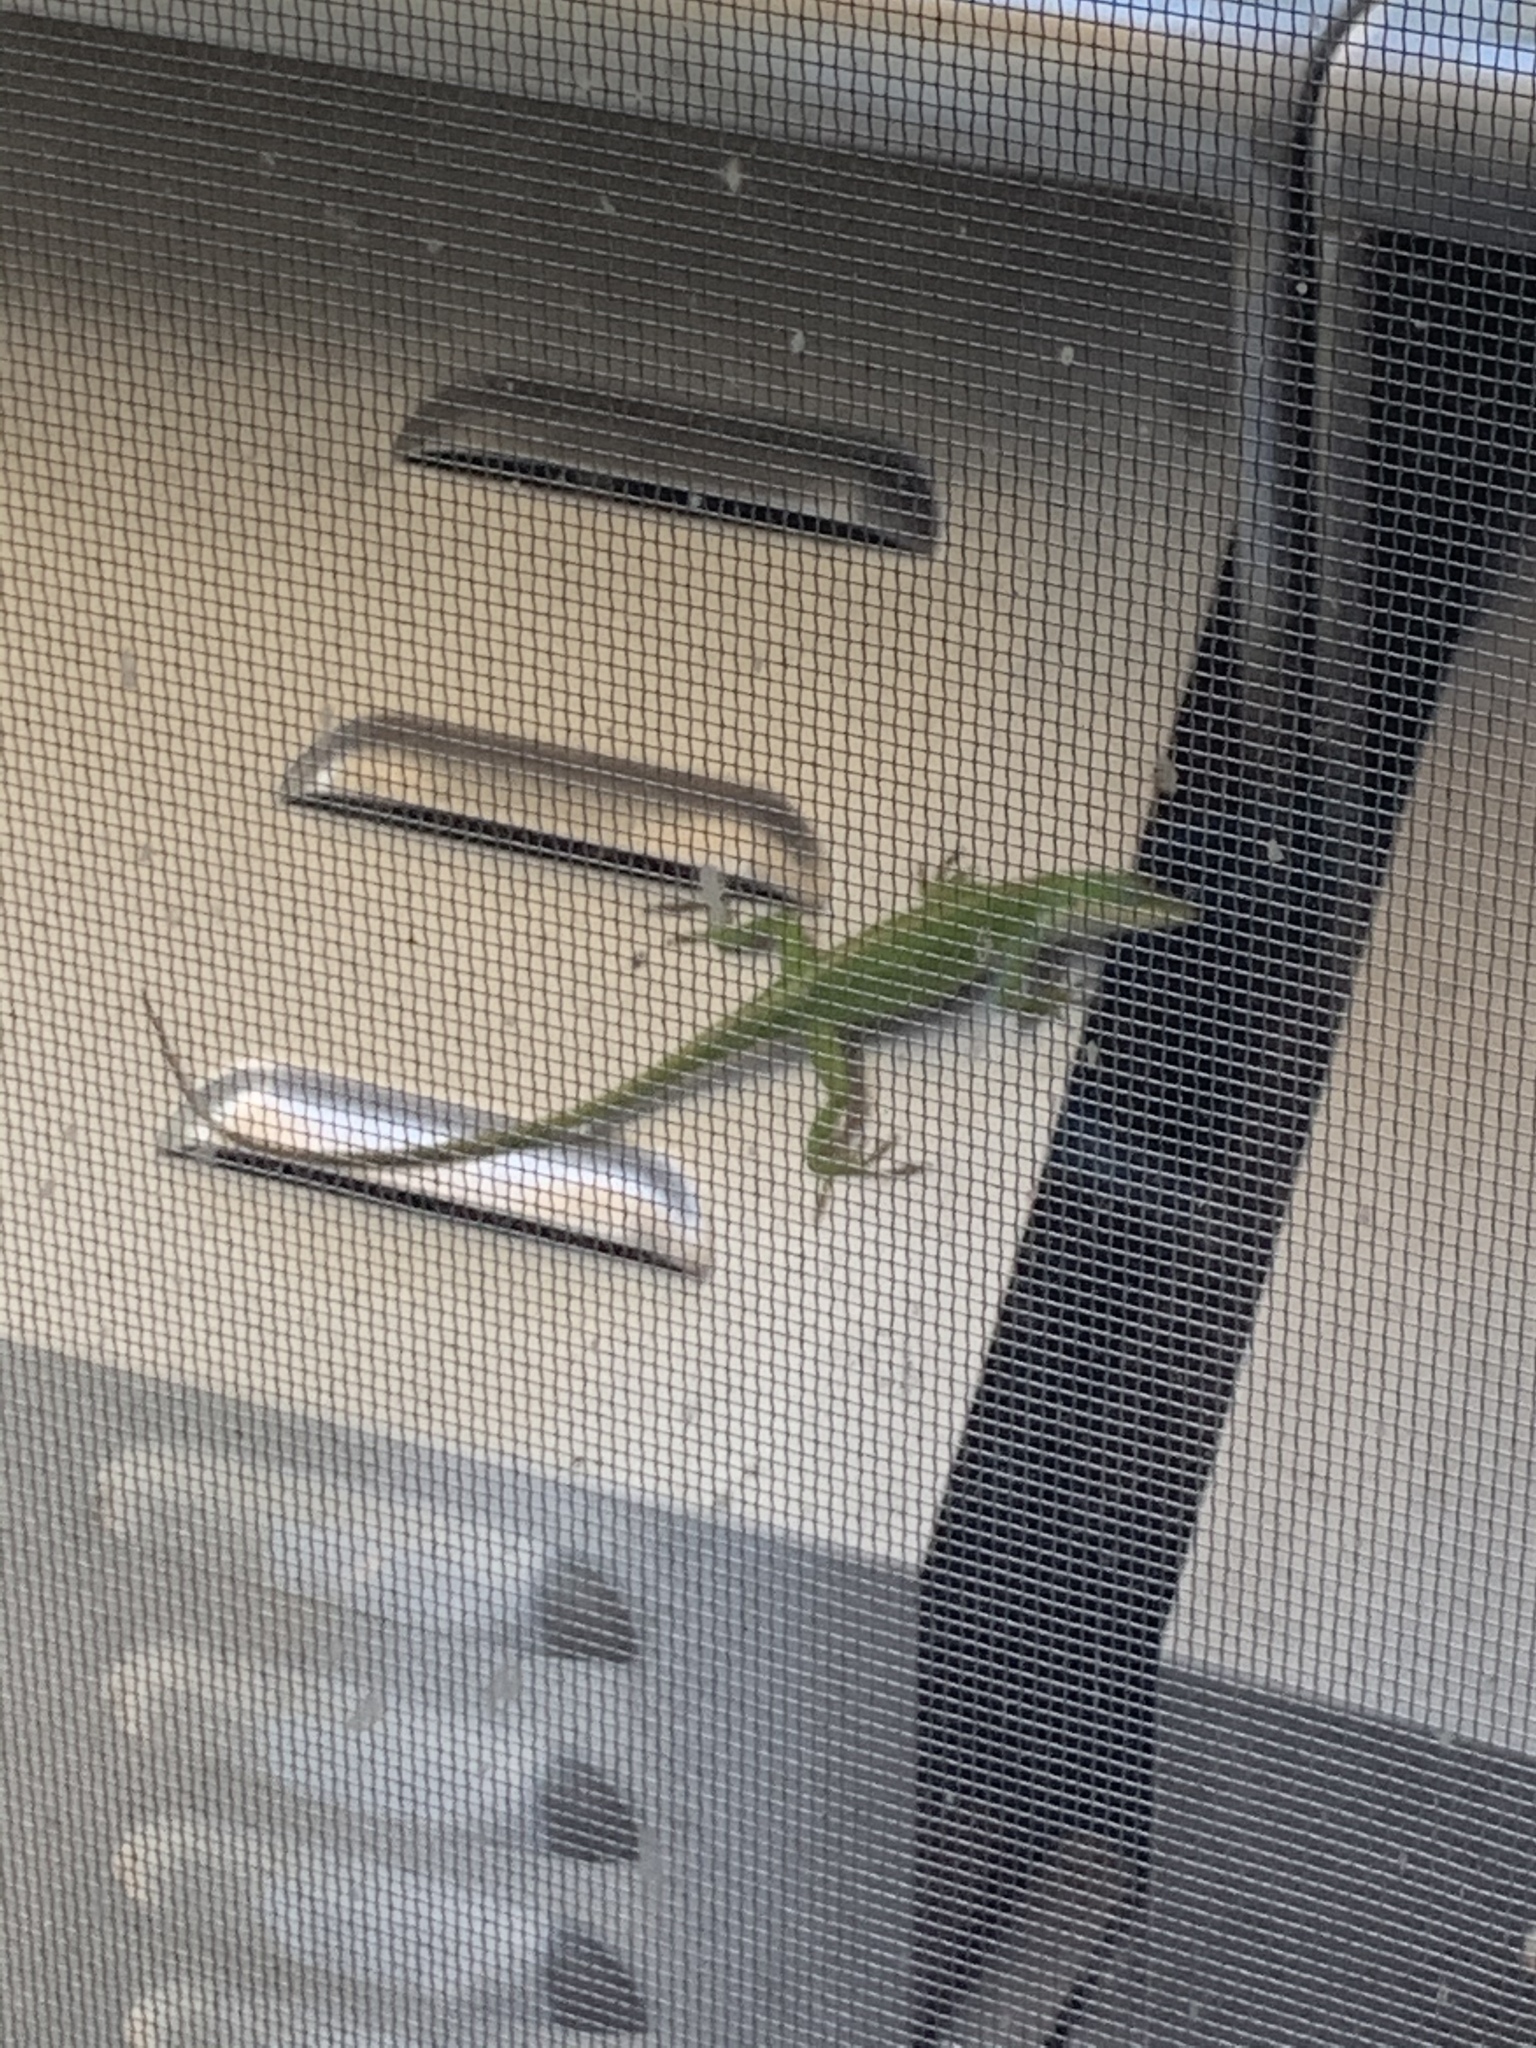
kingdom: Animalia
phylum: Chordata
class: Squamata
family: Dactyloidae
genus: Anolis
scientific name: Anolis carolinensis
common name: Green anole
